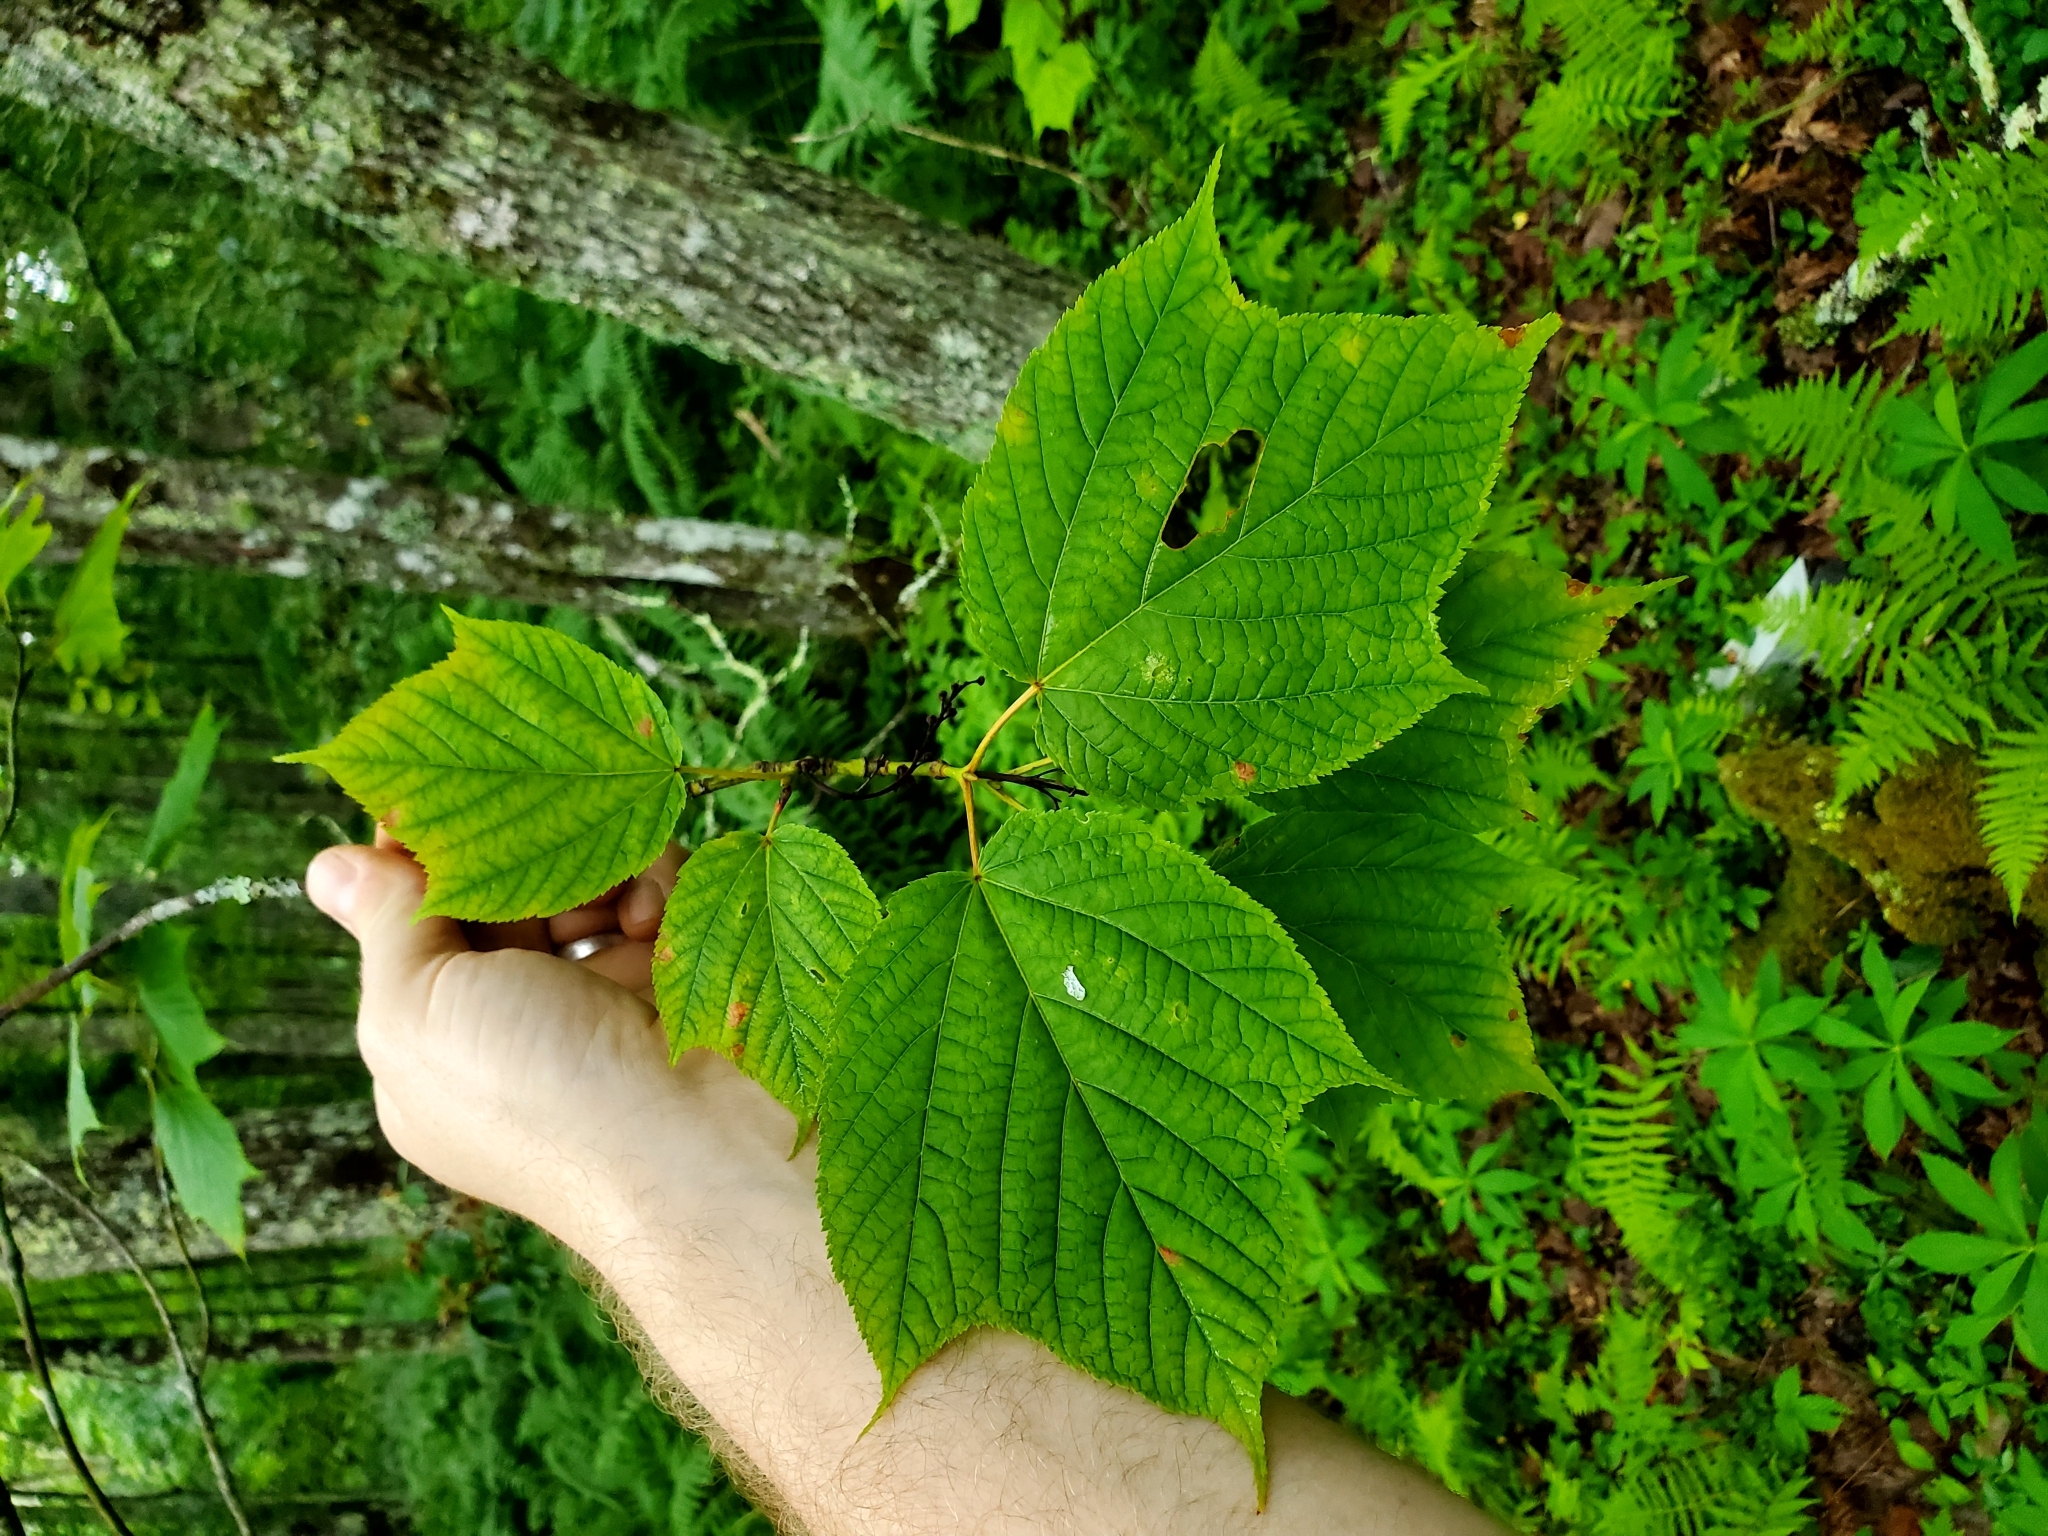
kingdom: Plantae
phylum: Tracheophyta
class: Magnoliopsida
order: Sapindales
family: Sapindaceae
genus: Acer
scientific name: Acer pensylvanicum
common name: Moosewood
